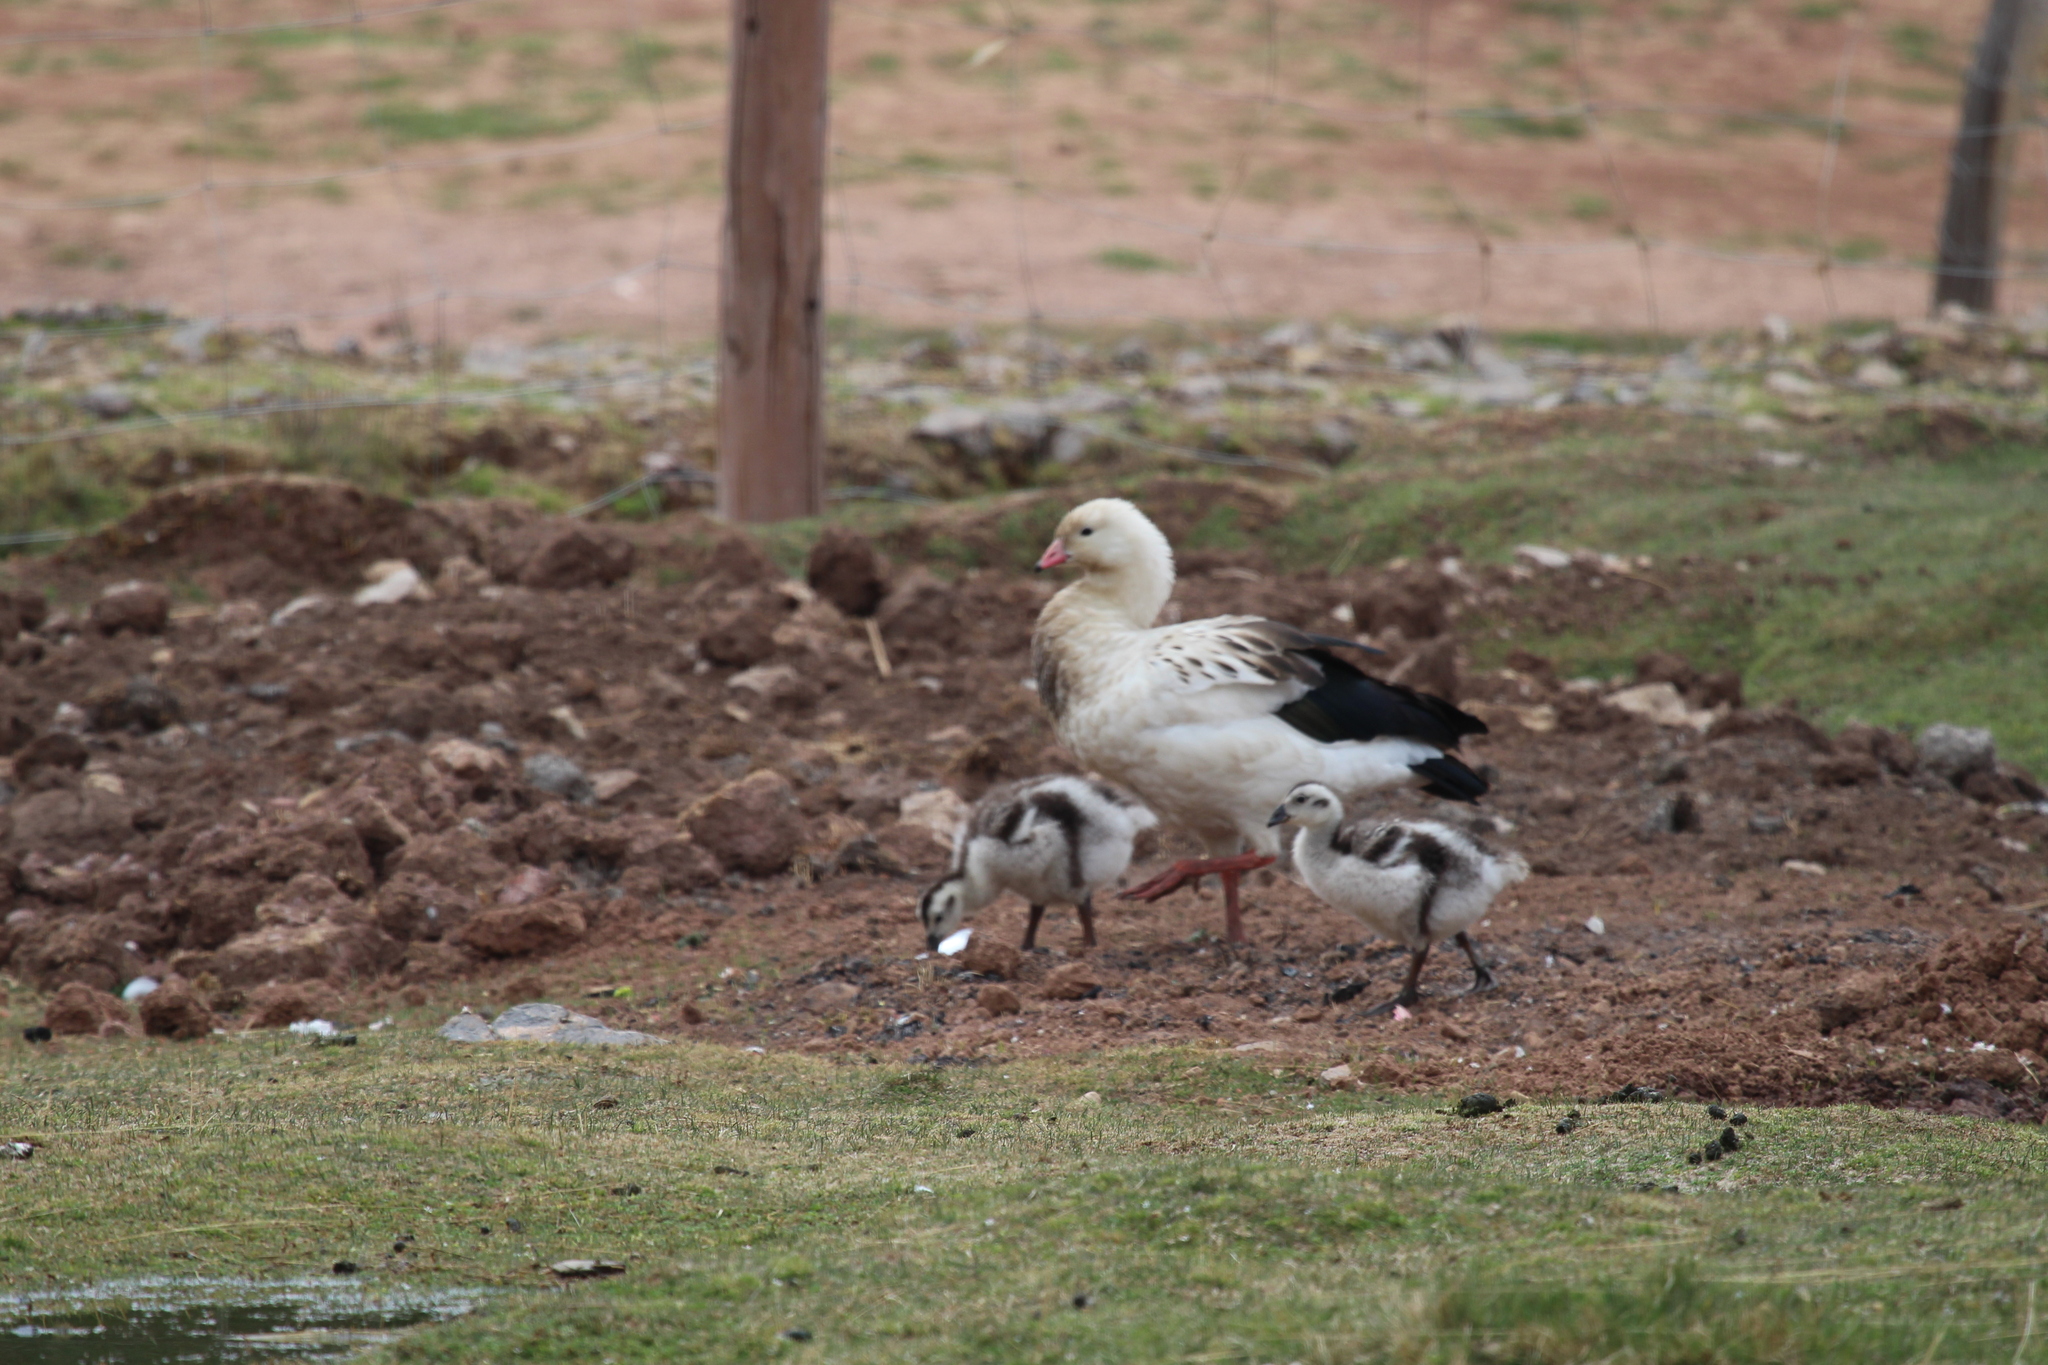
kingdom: Animalia
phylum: Chordata
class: Aves
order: Anseriformes
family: Anatidae
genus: Chloephaga
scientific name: Chloephaga melanoptera
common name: Andean goose
